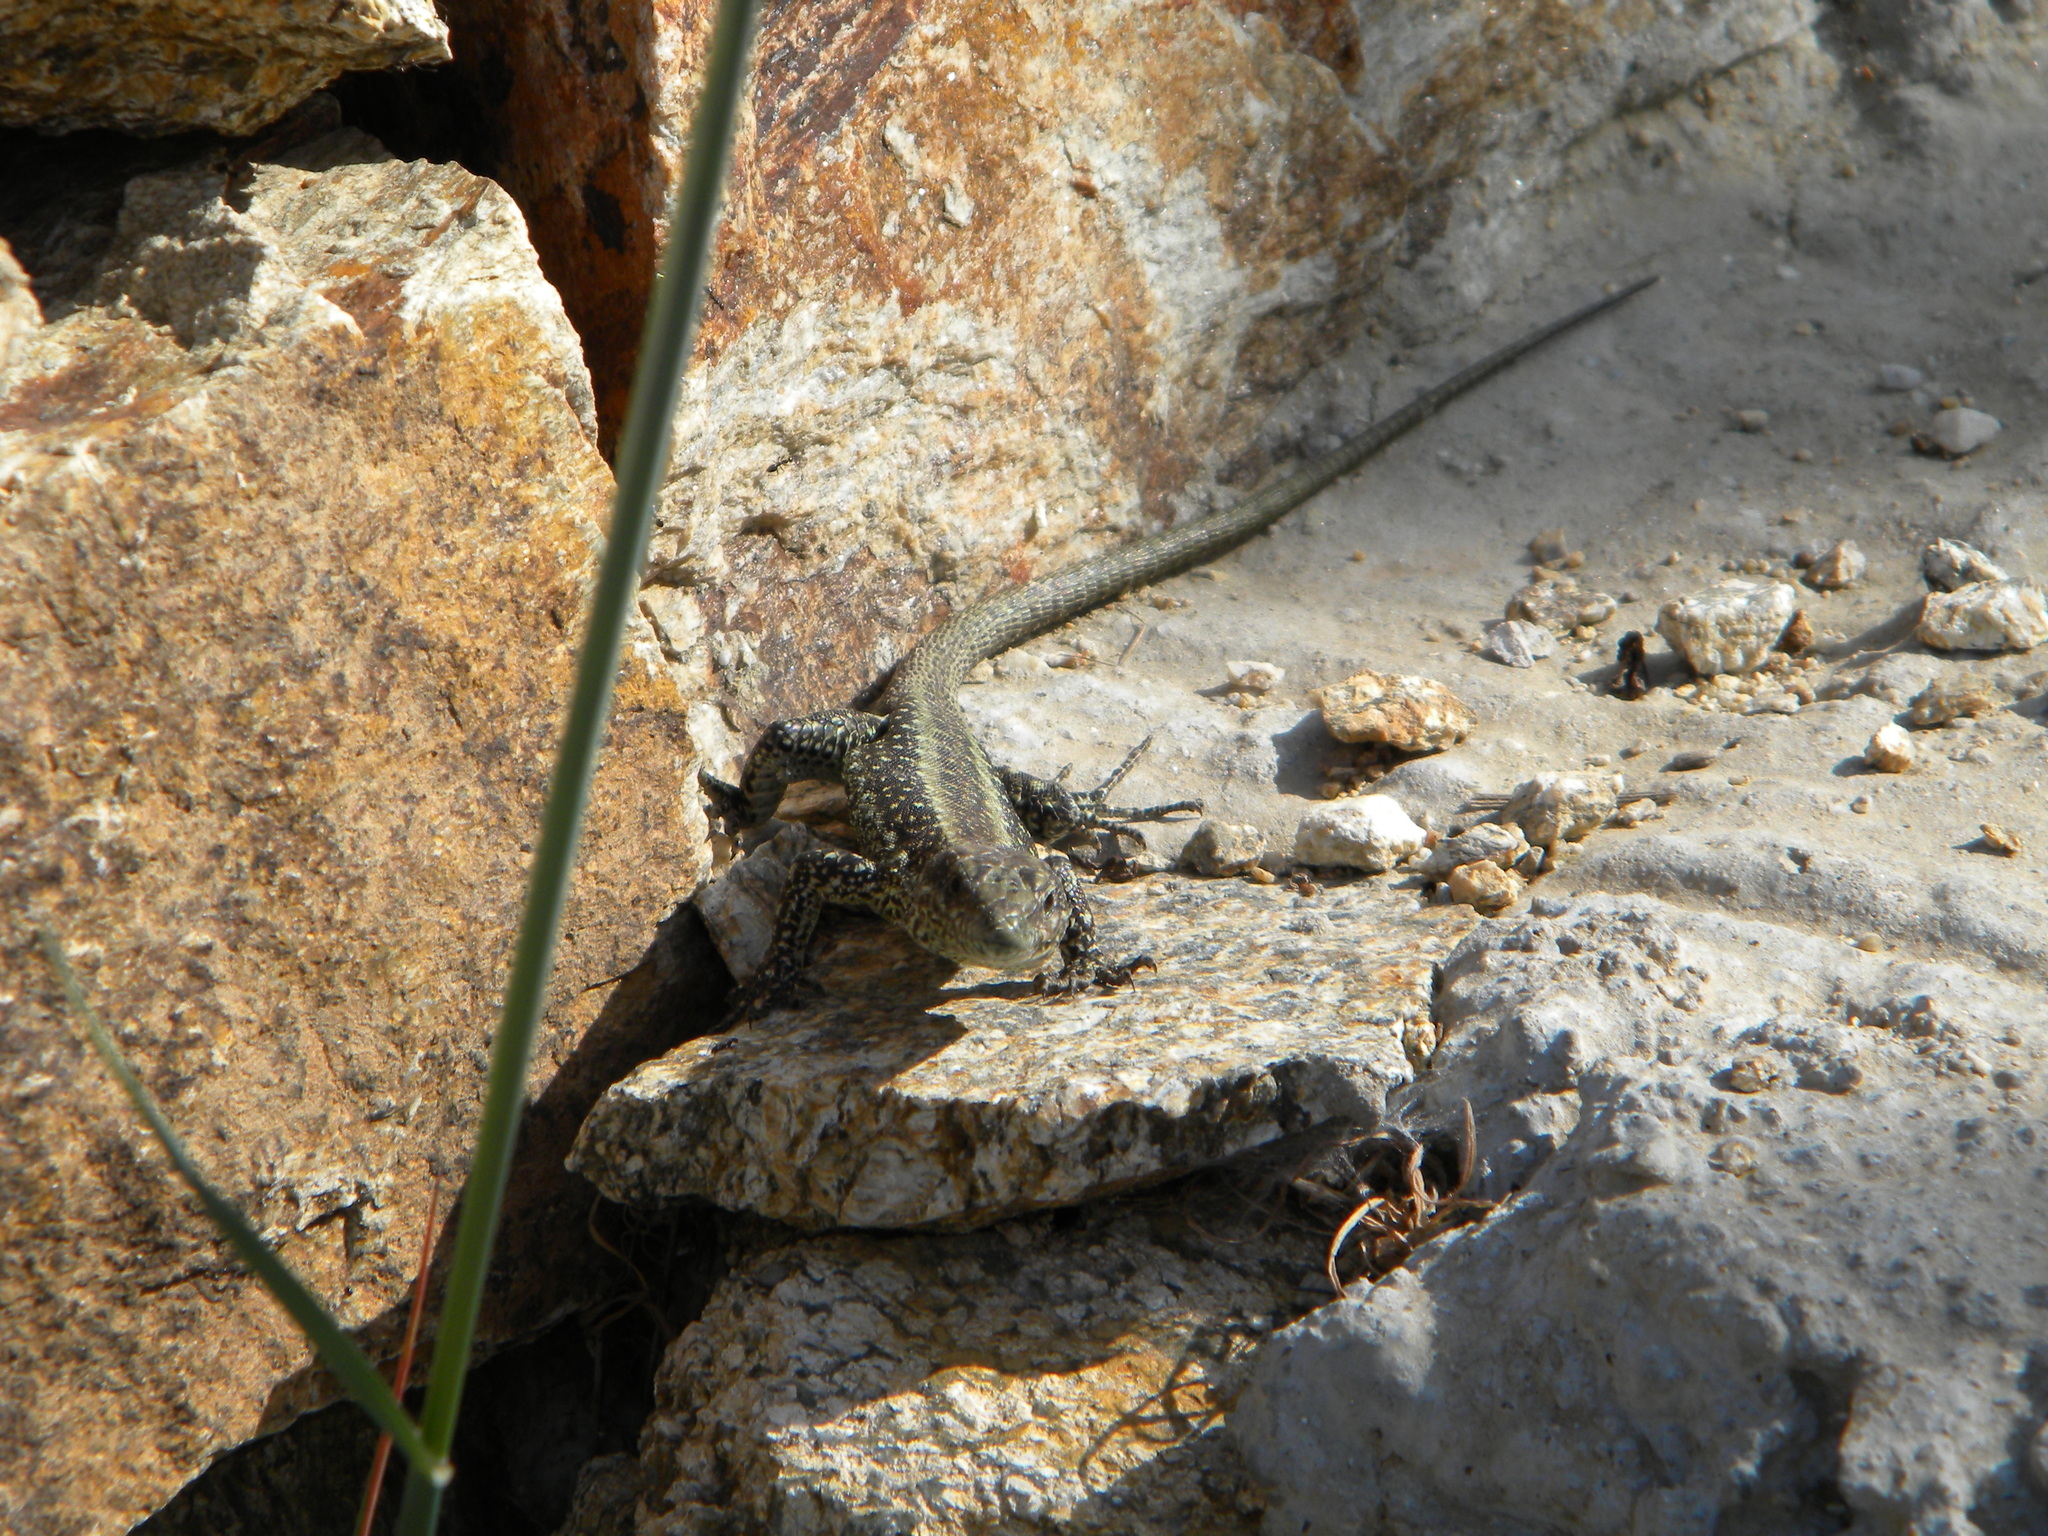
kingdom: Animalia
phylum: Chordata
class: Squamata
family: Lacertidae
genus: Anatololacerta
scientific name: Anatololacerta anatolica
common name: Anatolian rock lizard
